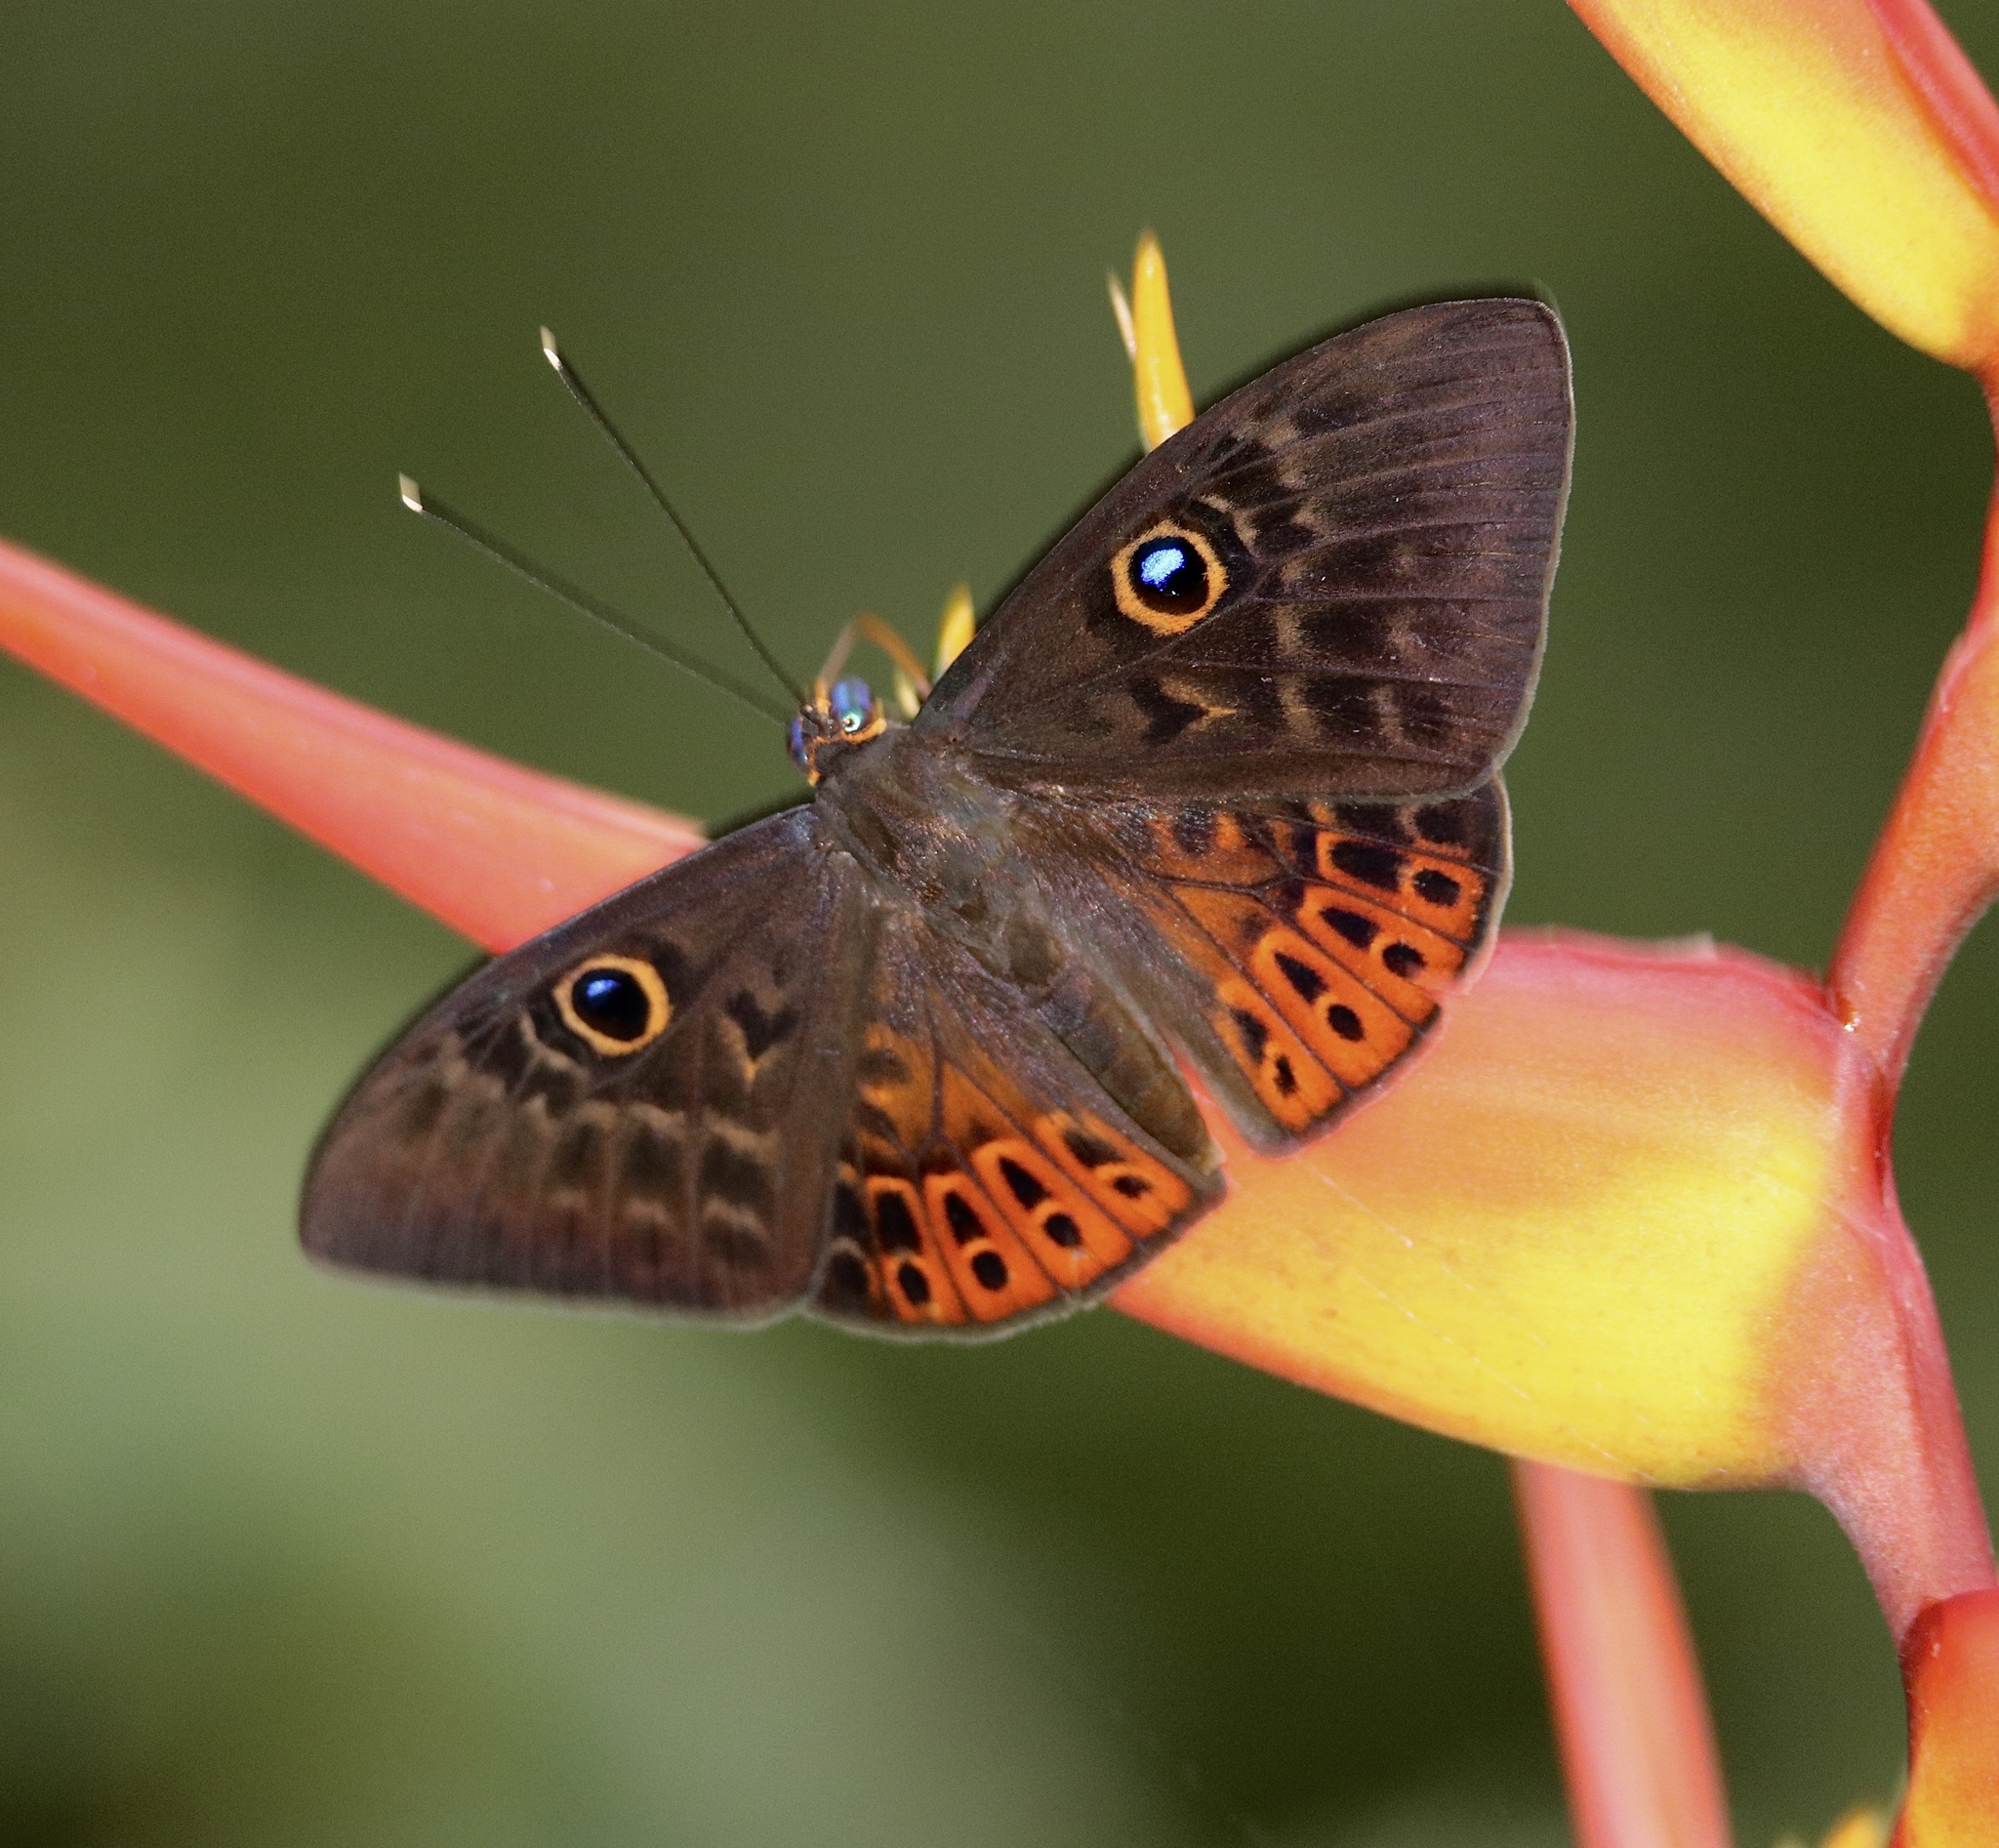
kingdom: Animalia
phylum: Cnidaria
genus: Eurybia
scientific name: Eurybia patrona
